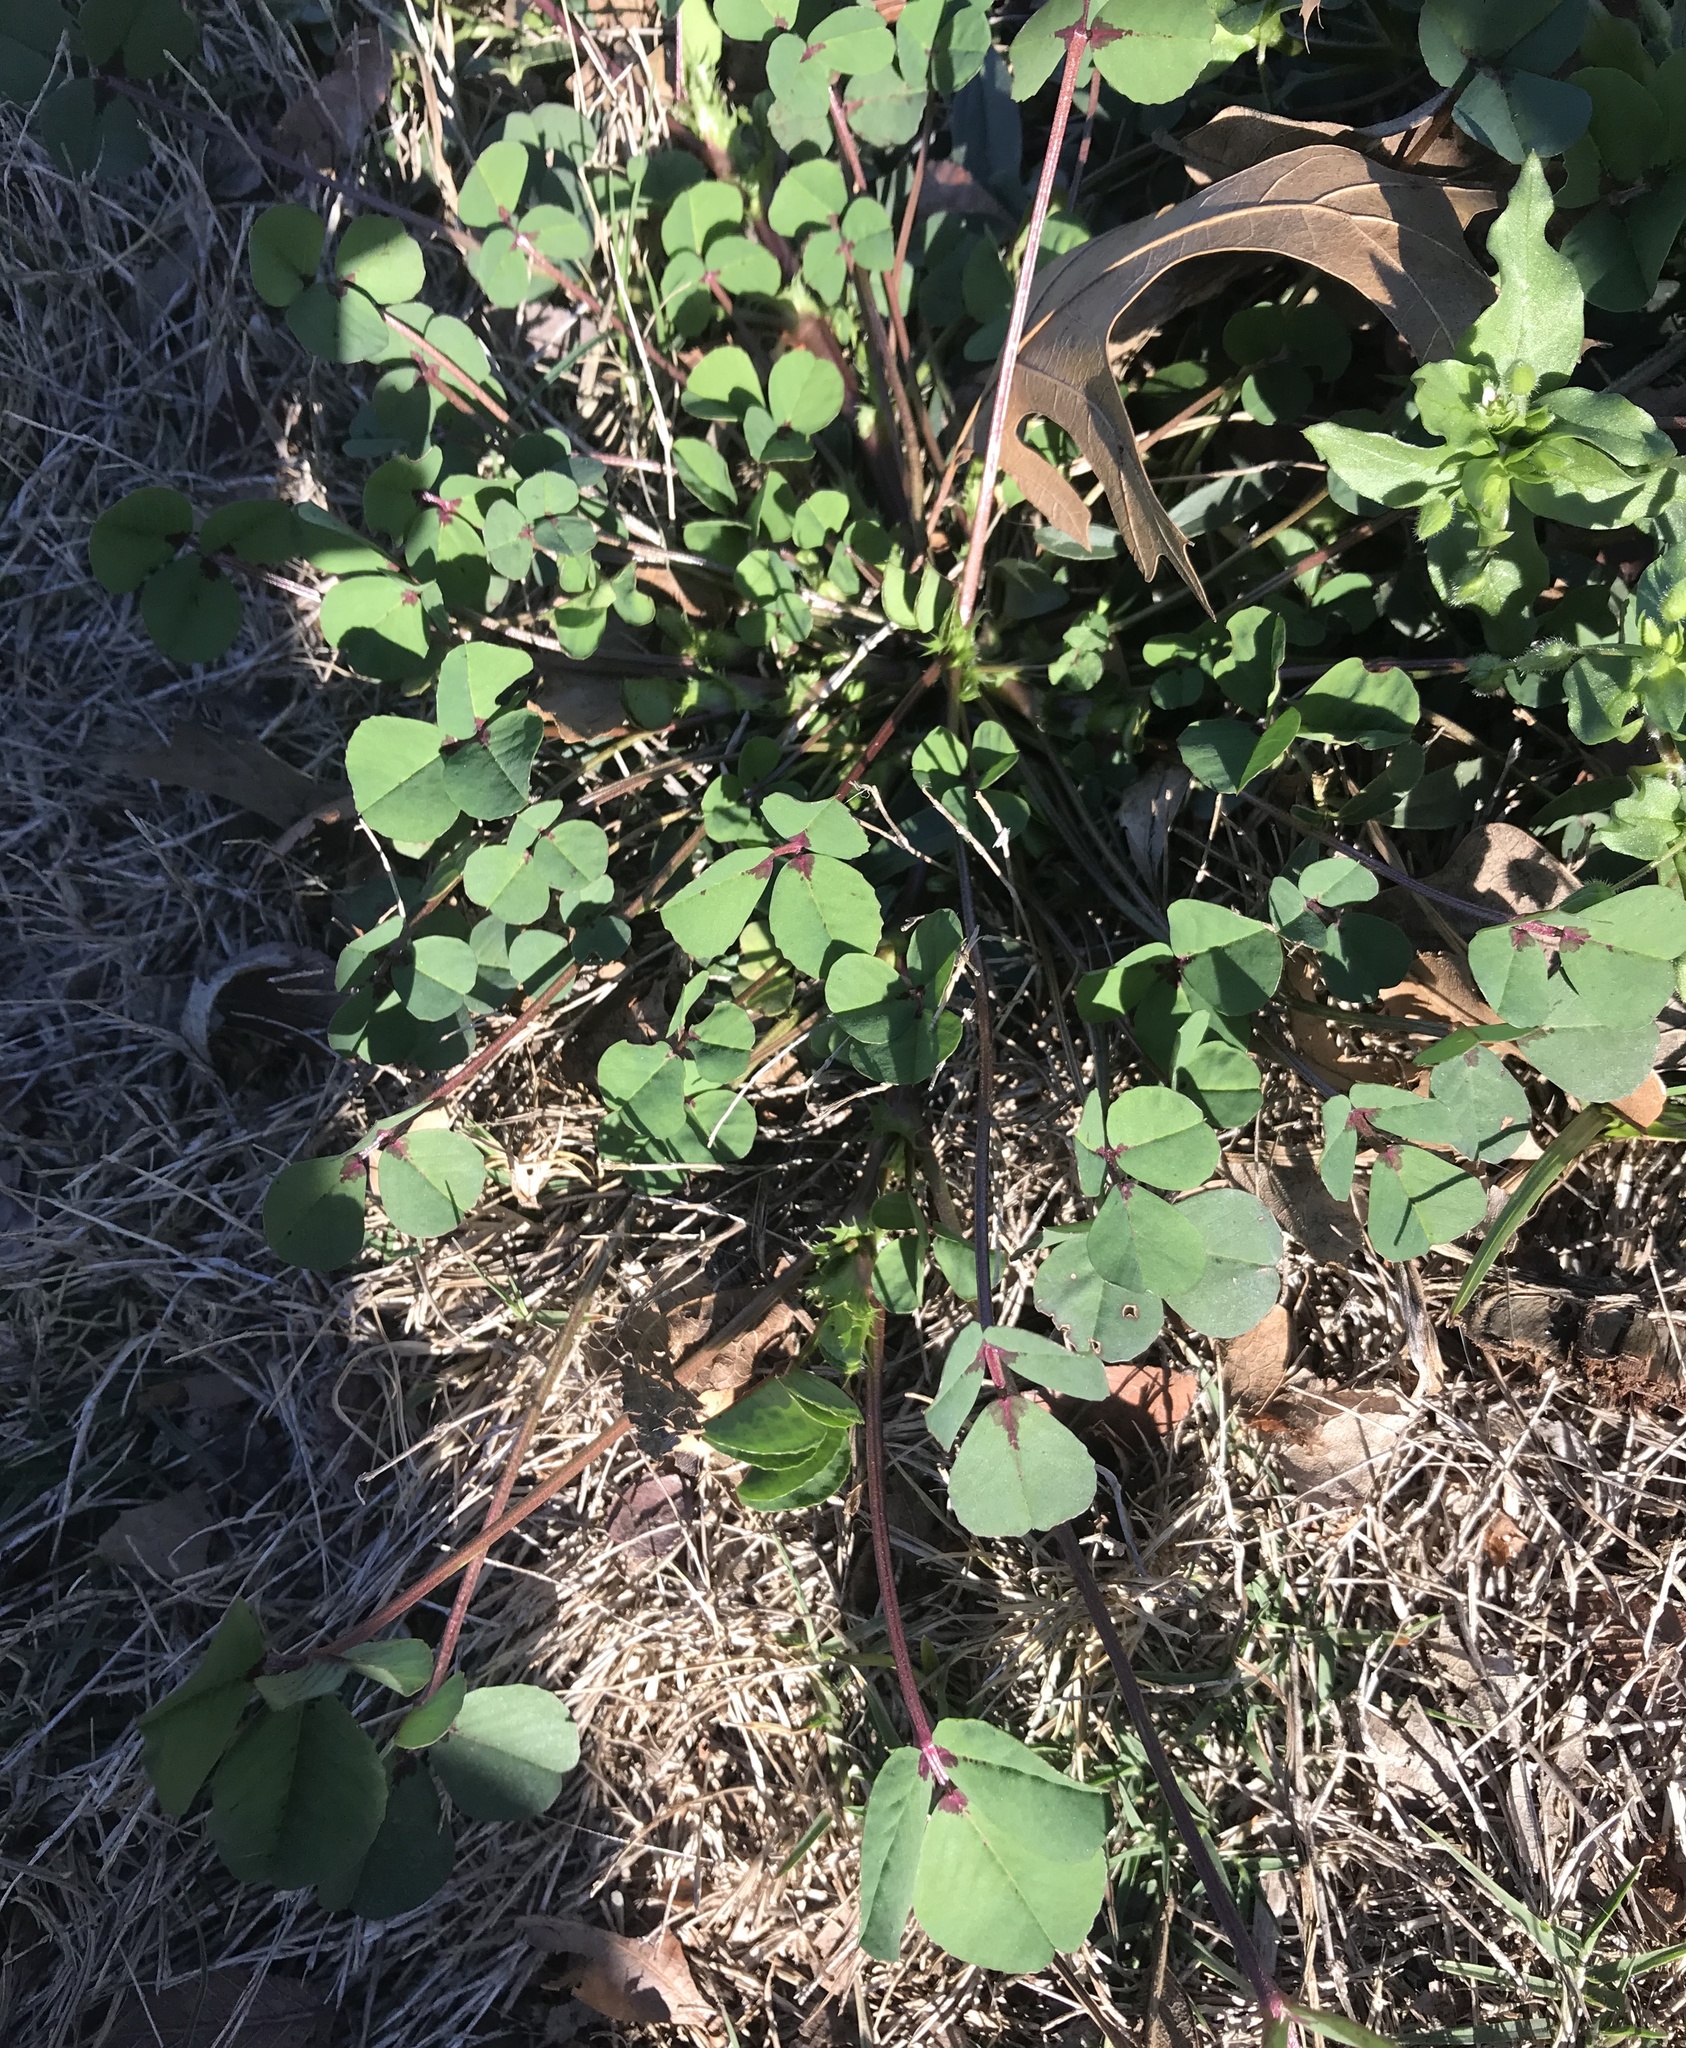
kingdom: Plantae
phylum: Tracheophyta
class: Magnoliopsida
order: Fabales
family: Fabaceae
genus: Medicago
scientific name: Medicago arabica
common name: Spotted medick
